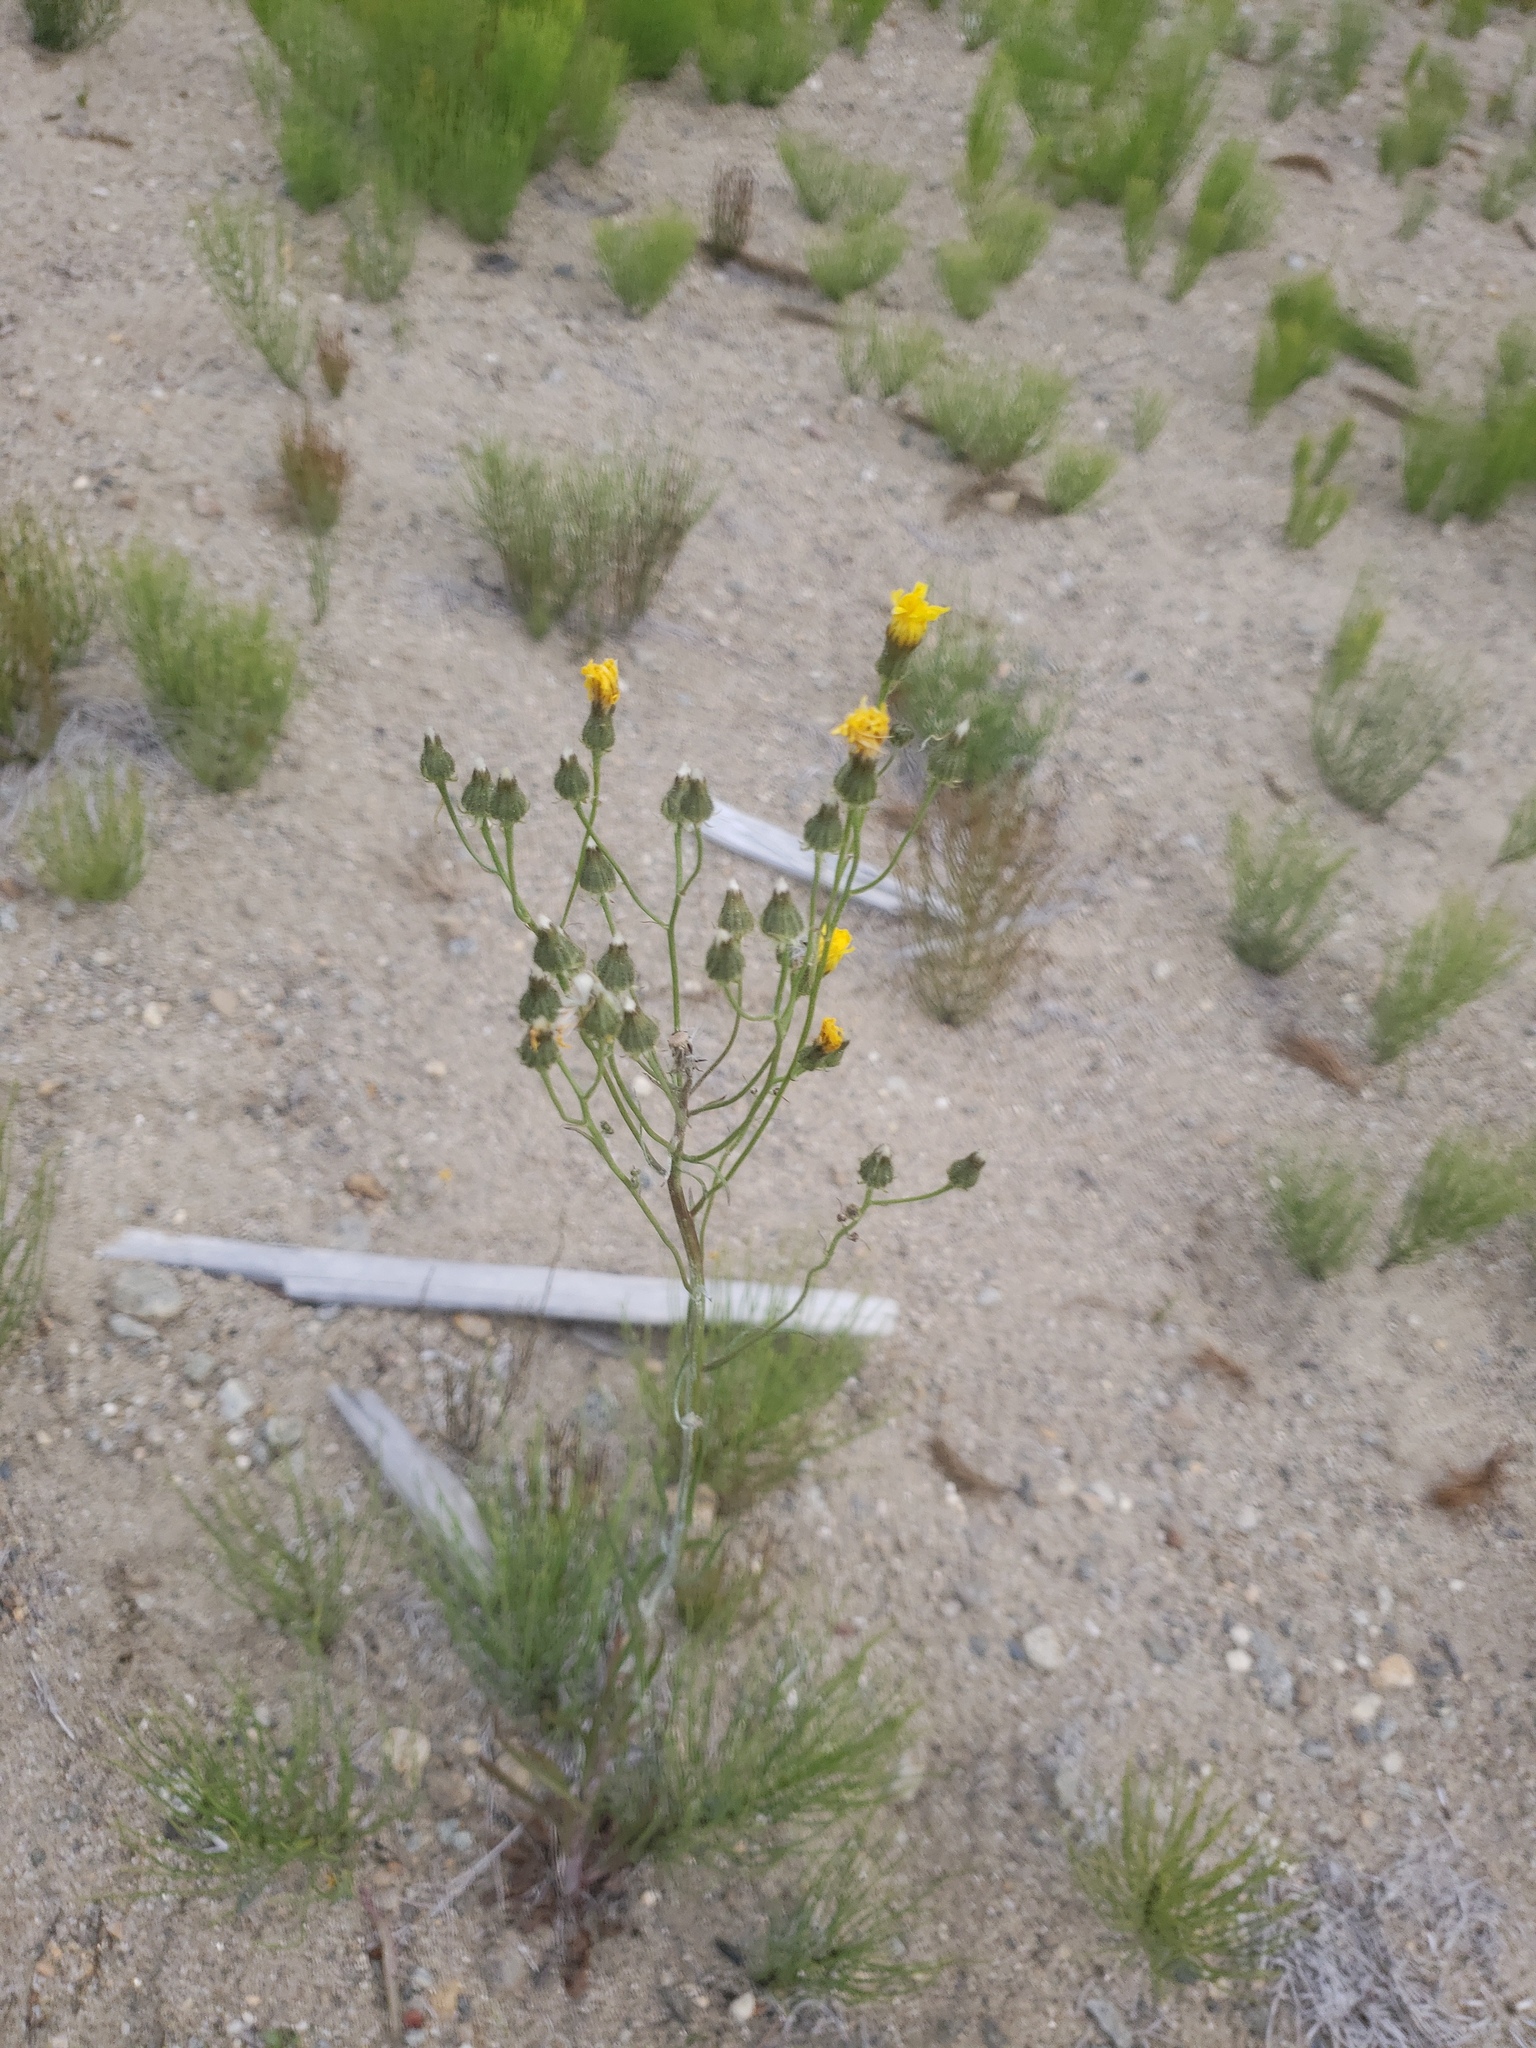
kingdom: Plantae
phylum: Tracheophyta
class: Magnoliopsida
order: Asterales
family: Asteraceae
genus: Crepis
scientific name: Crepis tectorum
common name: Narrow-leaved hawk's-beard
